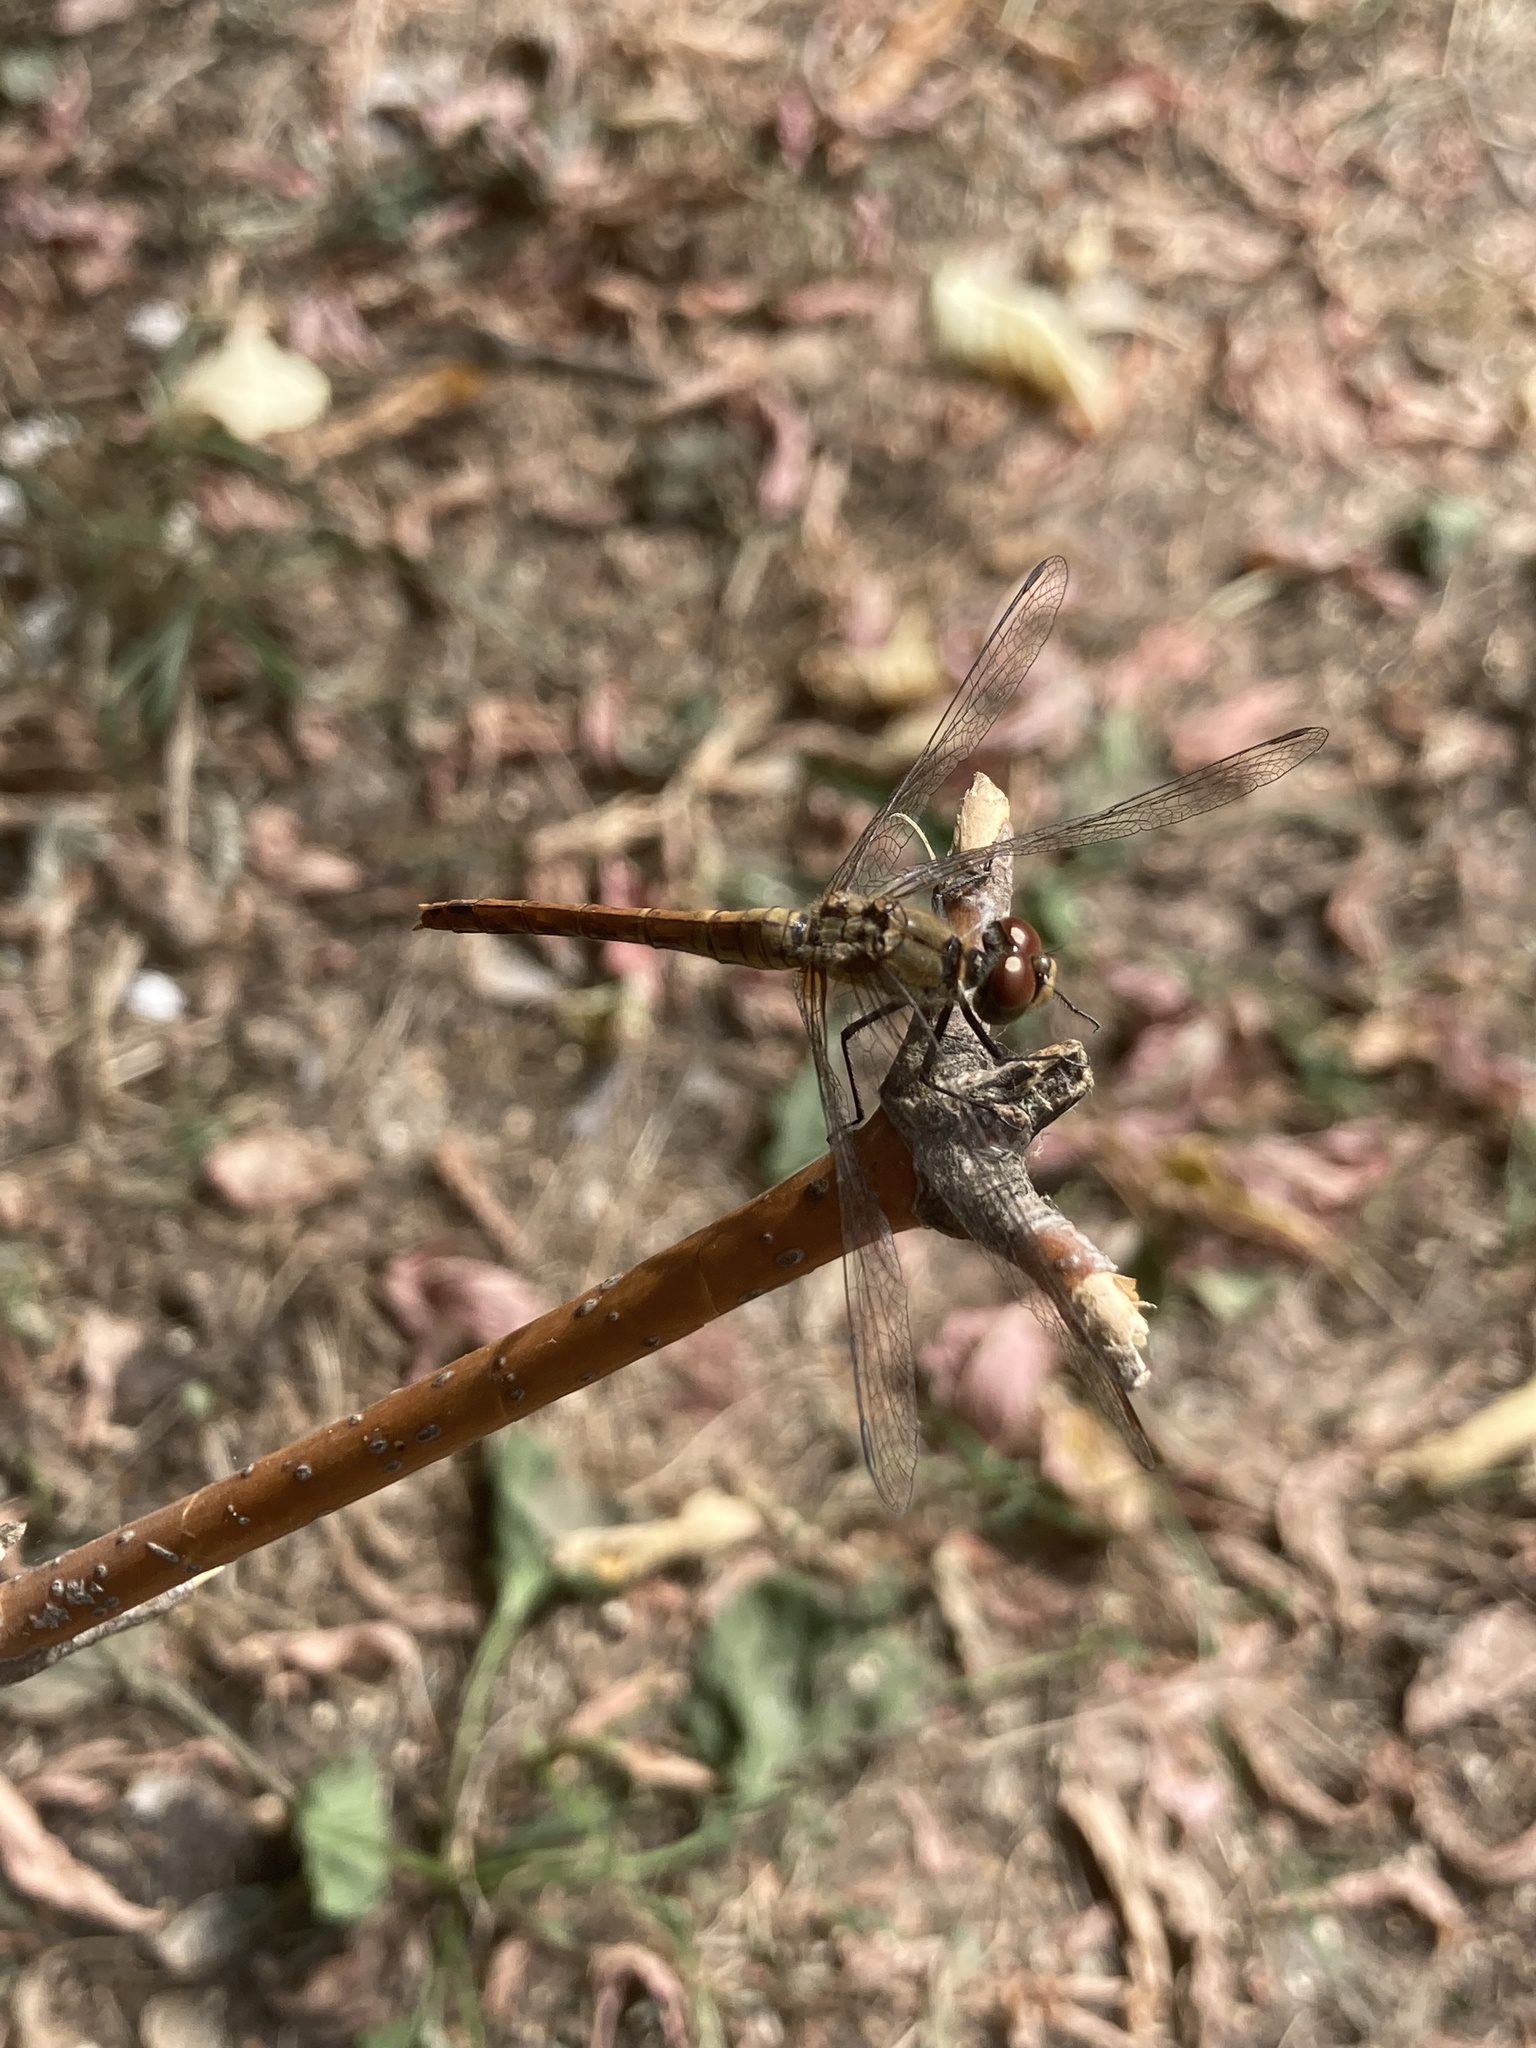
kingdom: Animalia
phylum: Arthropoda
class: Insecta
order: Odonata
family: Libellulidae
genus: Sympetrum
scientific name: Sympetrum sanguineum
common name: Ruddy darter
